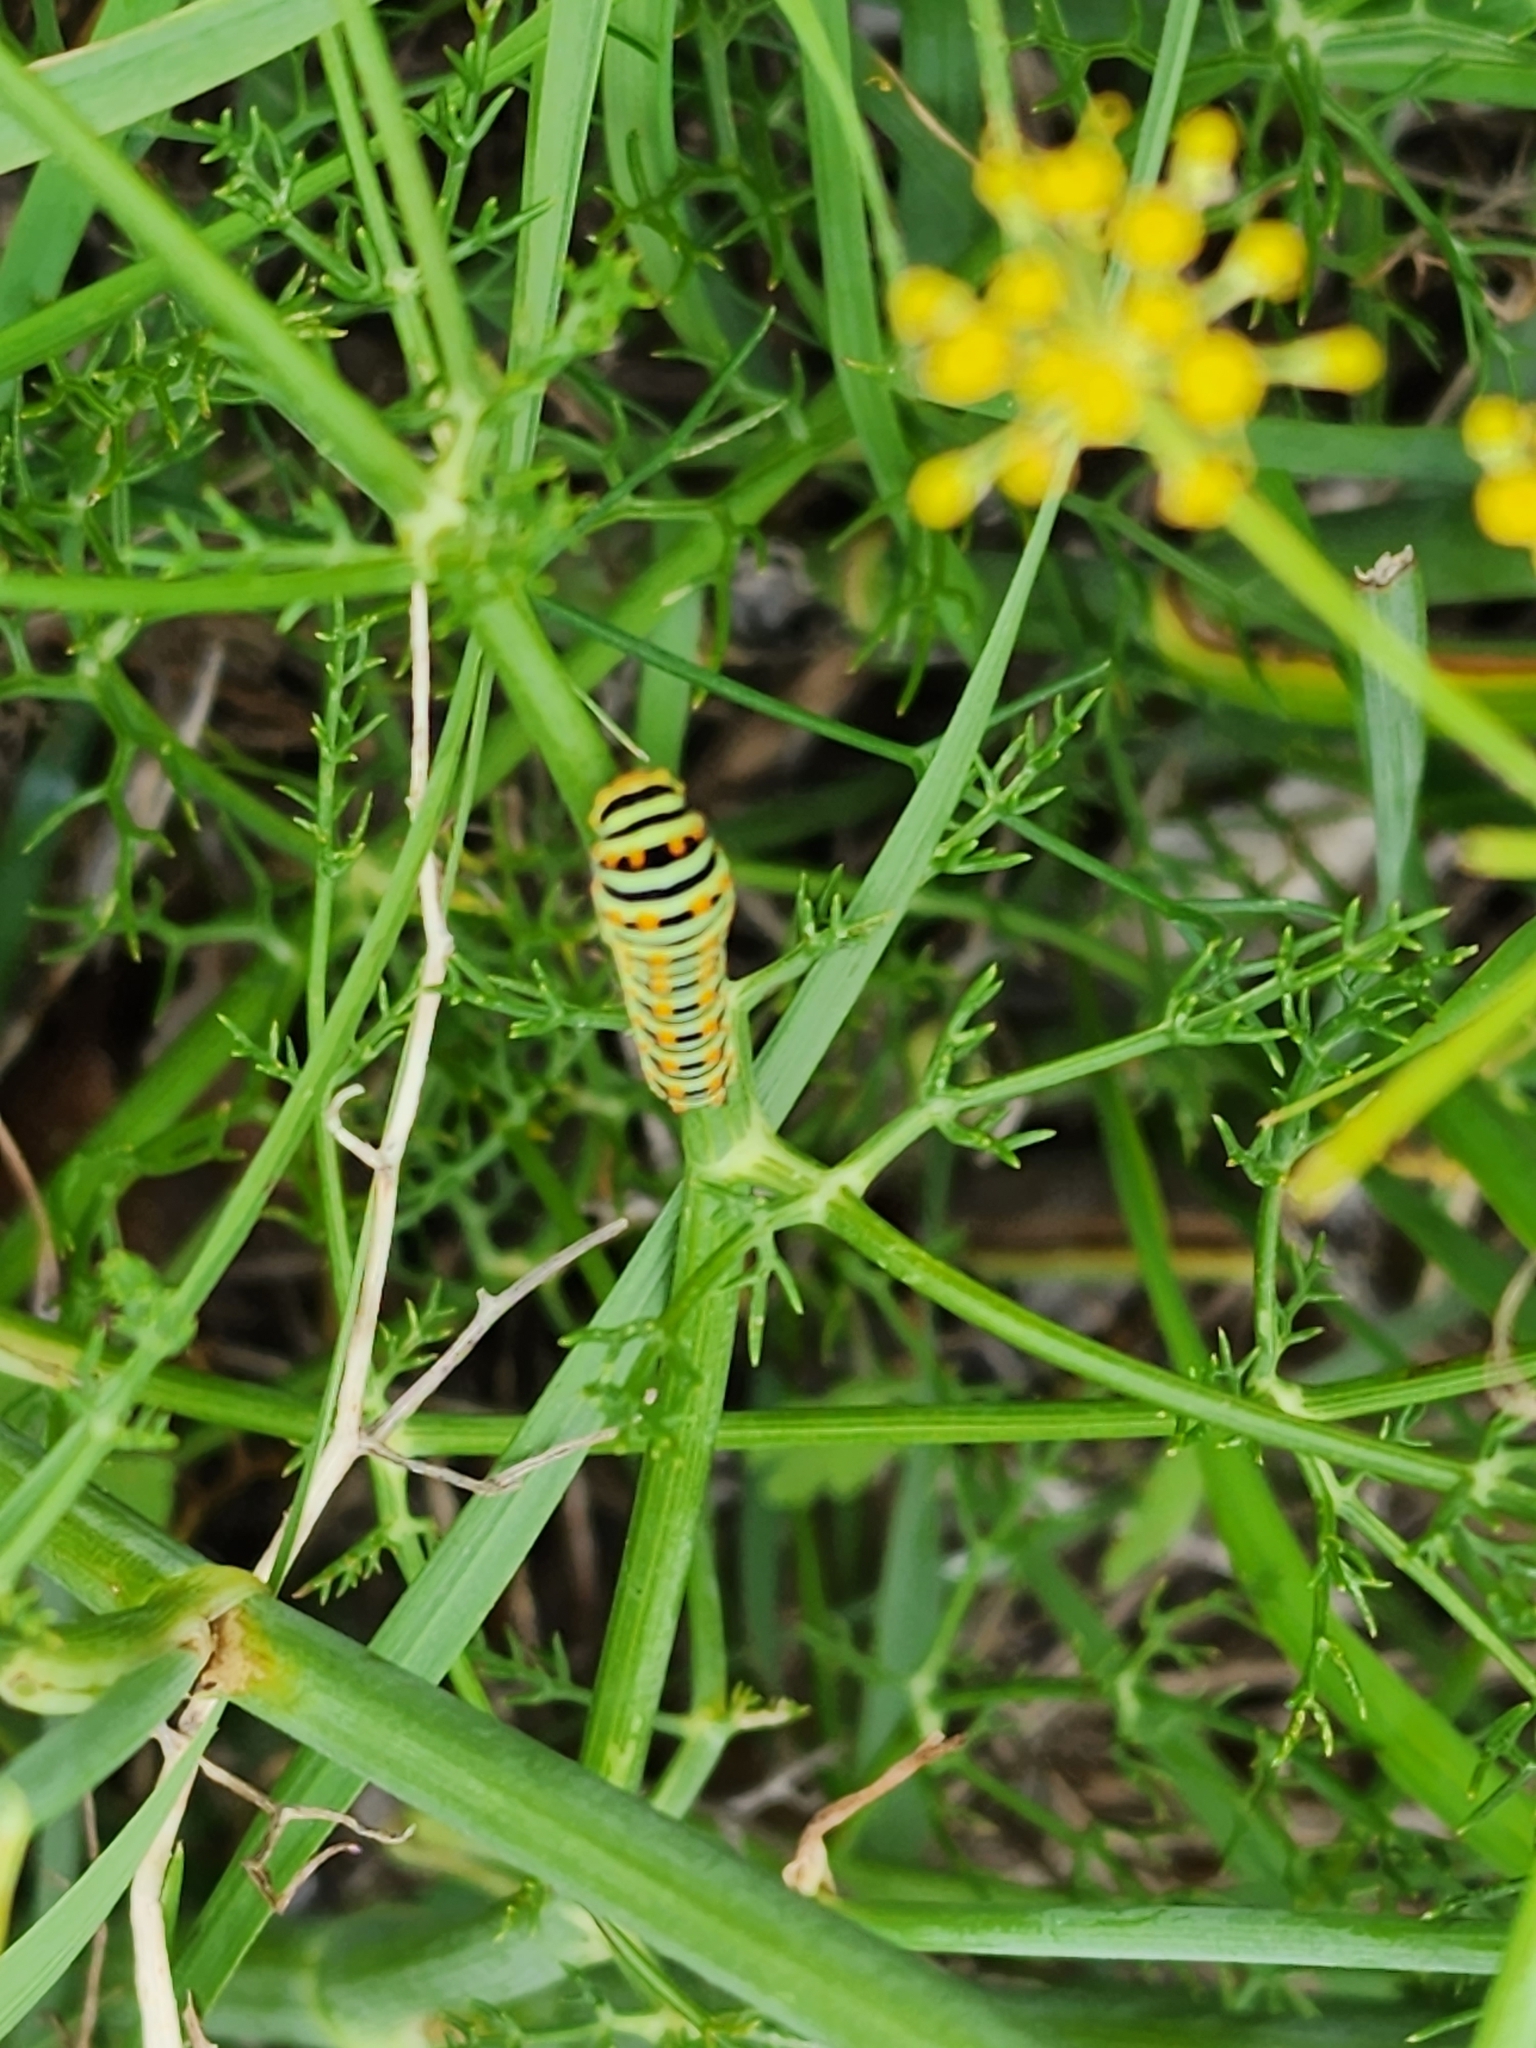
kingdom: Plantae
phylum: Tracheophyta
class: Magnoliopsida
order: Apiales
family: Apiaceae
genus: Foeniculum
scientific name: Foeniculum vulgare
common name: Fennel
